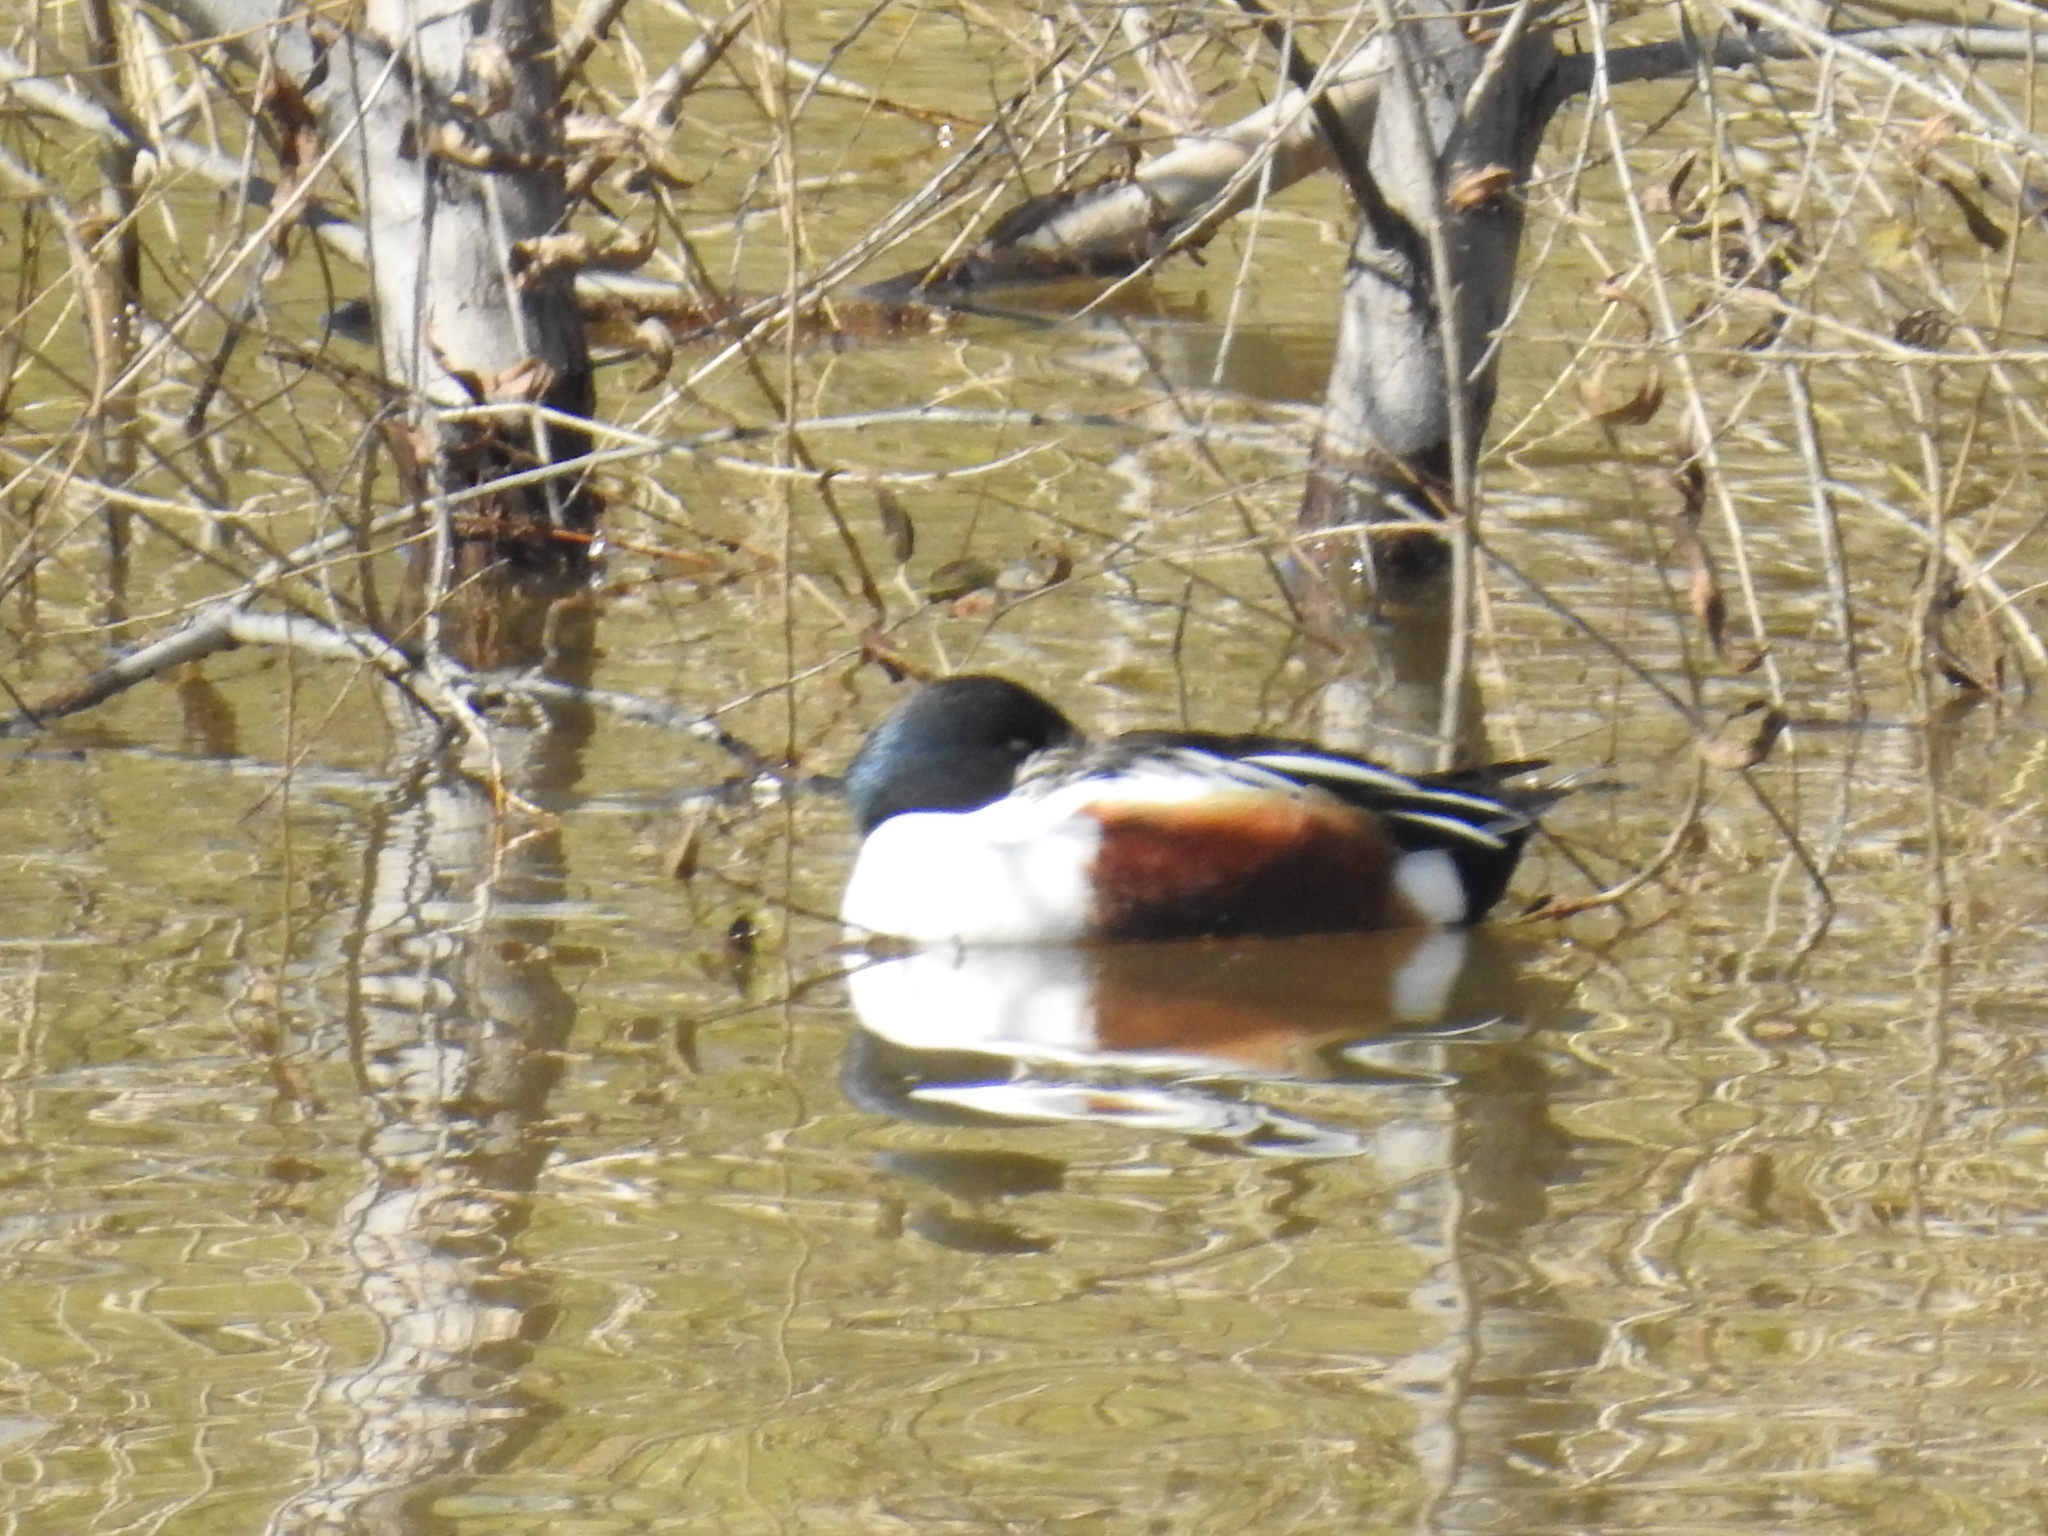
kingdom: Animalia
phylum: Chordata
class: Aves
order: Anseriformes
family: Anatidae
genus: Spatula
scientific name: Spatula clypeata
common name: Northern shoveler
